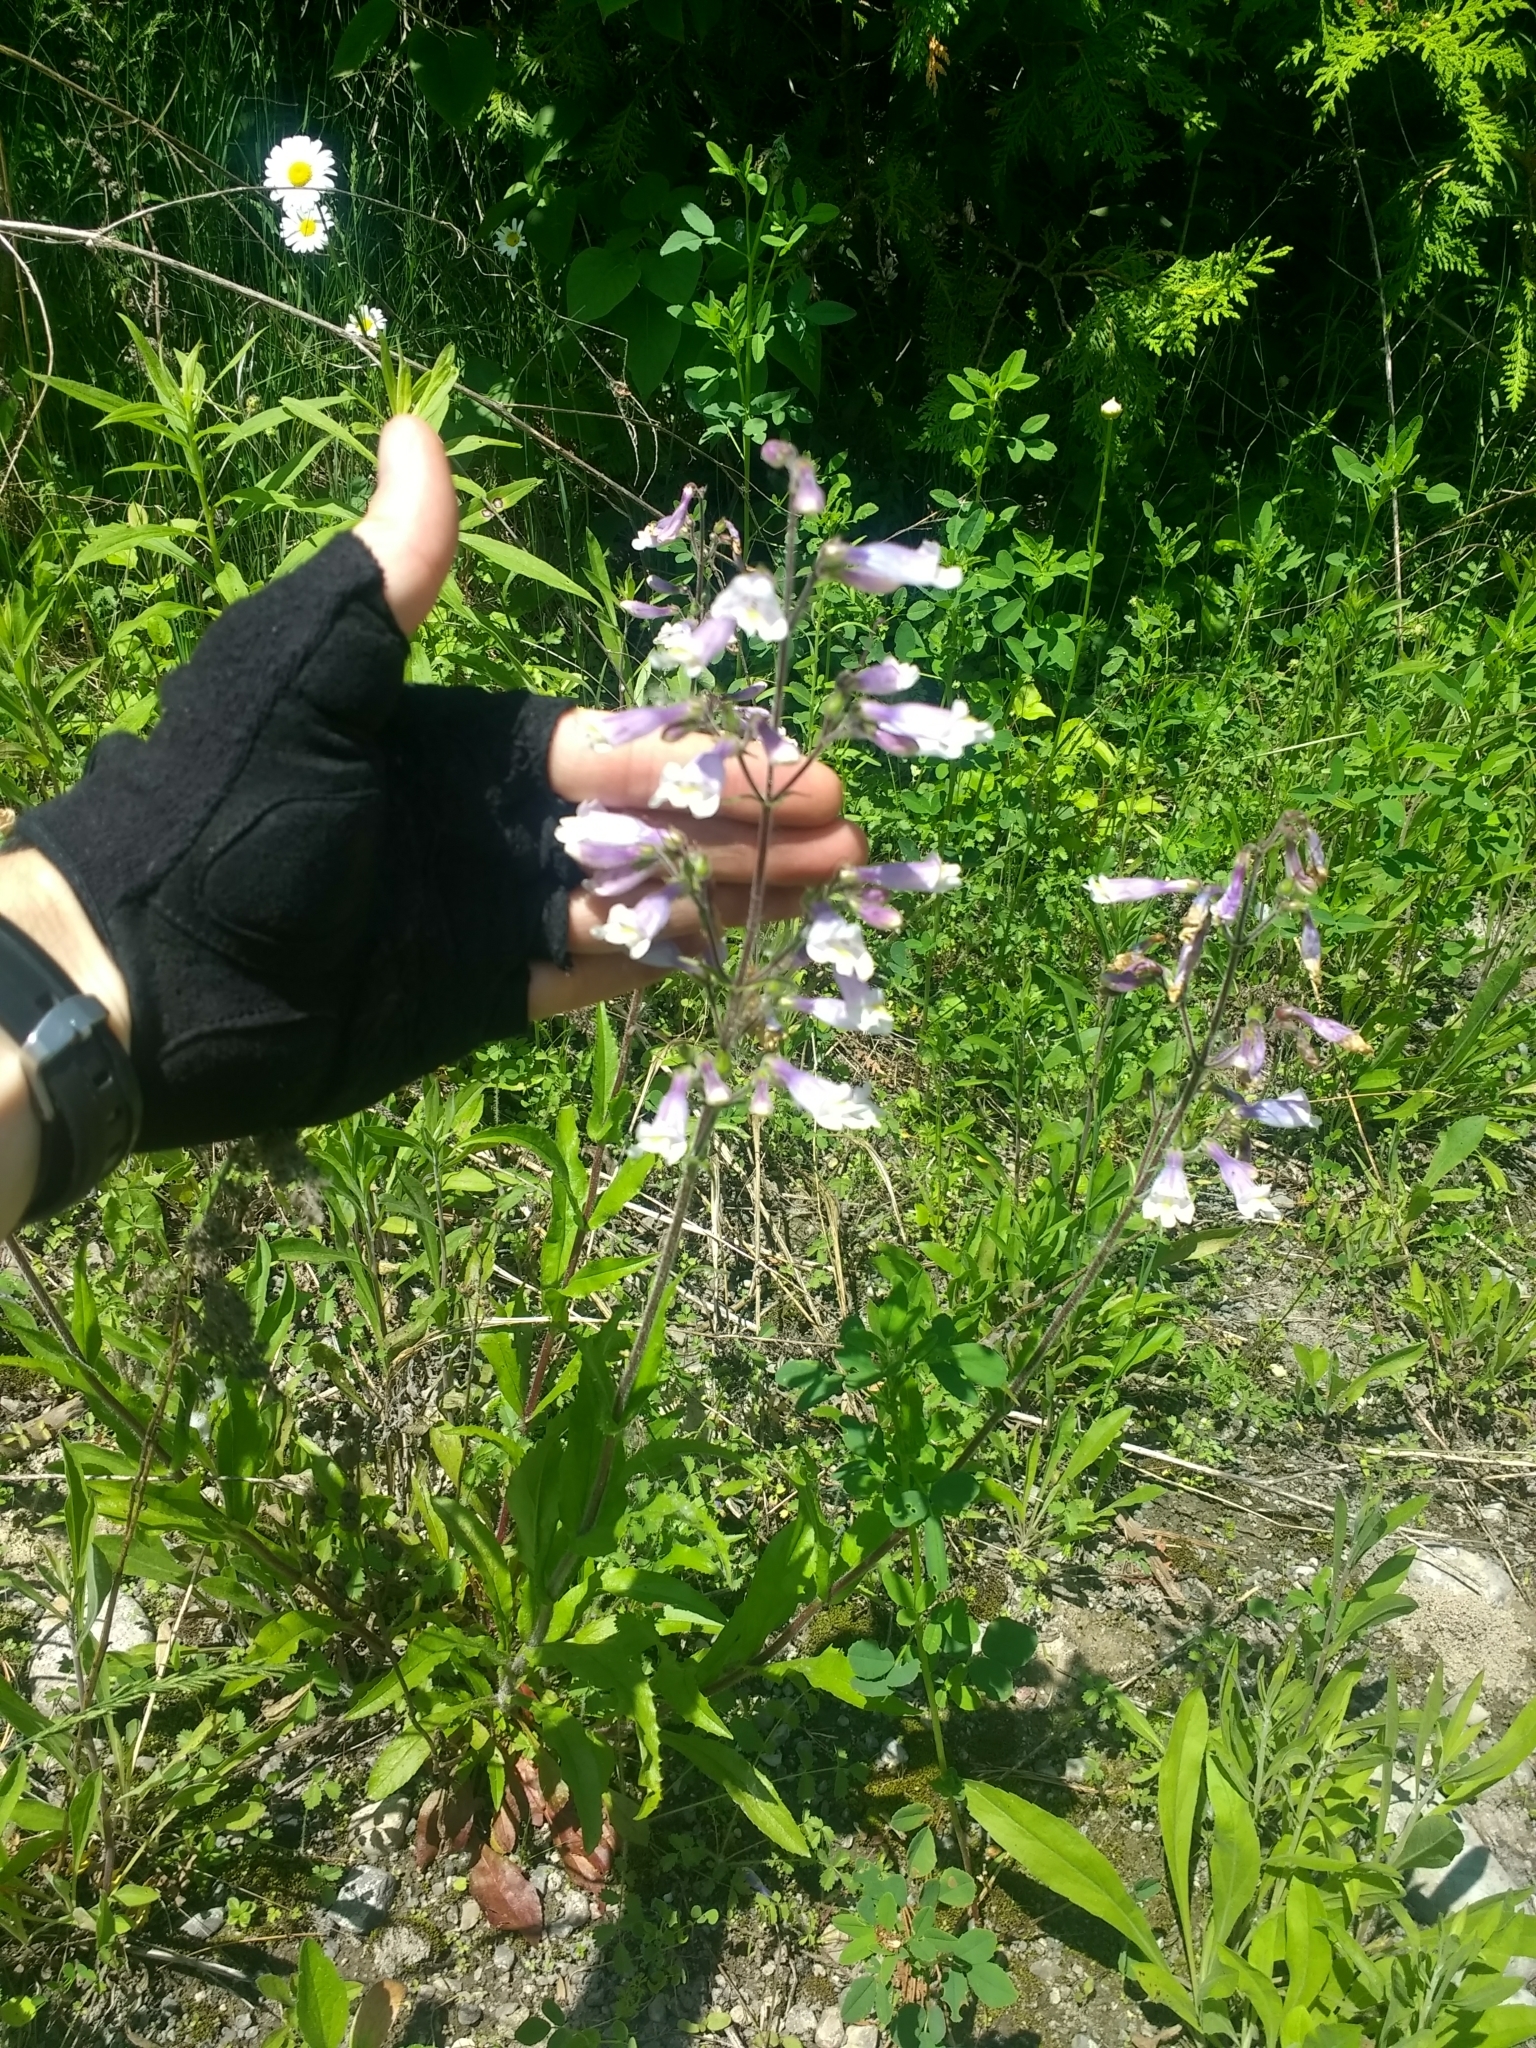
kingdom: Plantae
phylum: Tracheophyta
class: Magnoliopsida
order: Lamiales
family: Plantaginaceae
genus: Penstemon
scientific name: Penstemon hirsutus
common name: Hairy beardtongue
